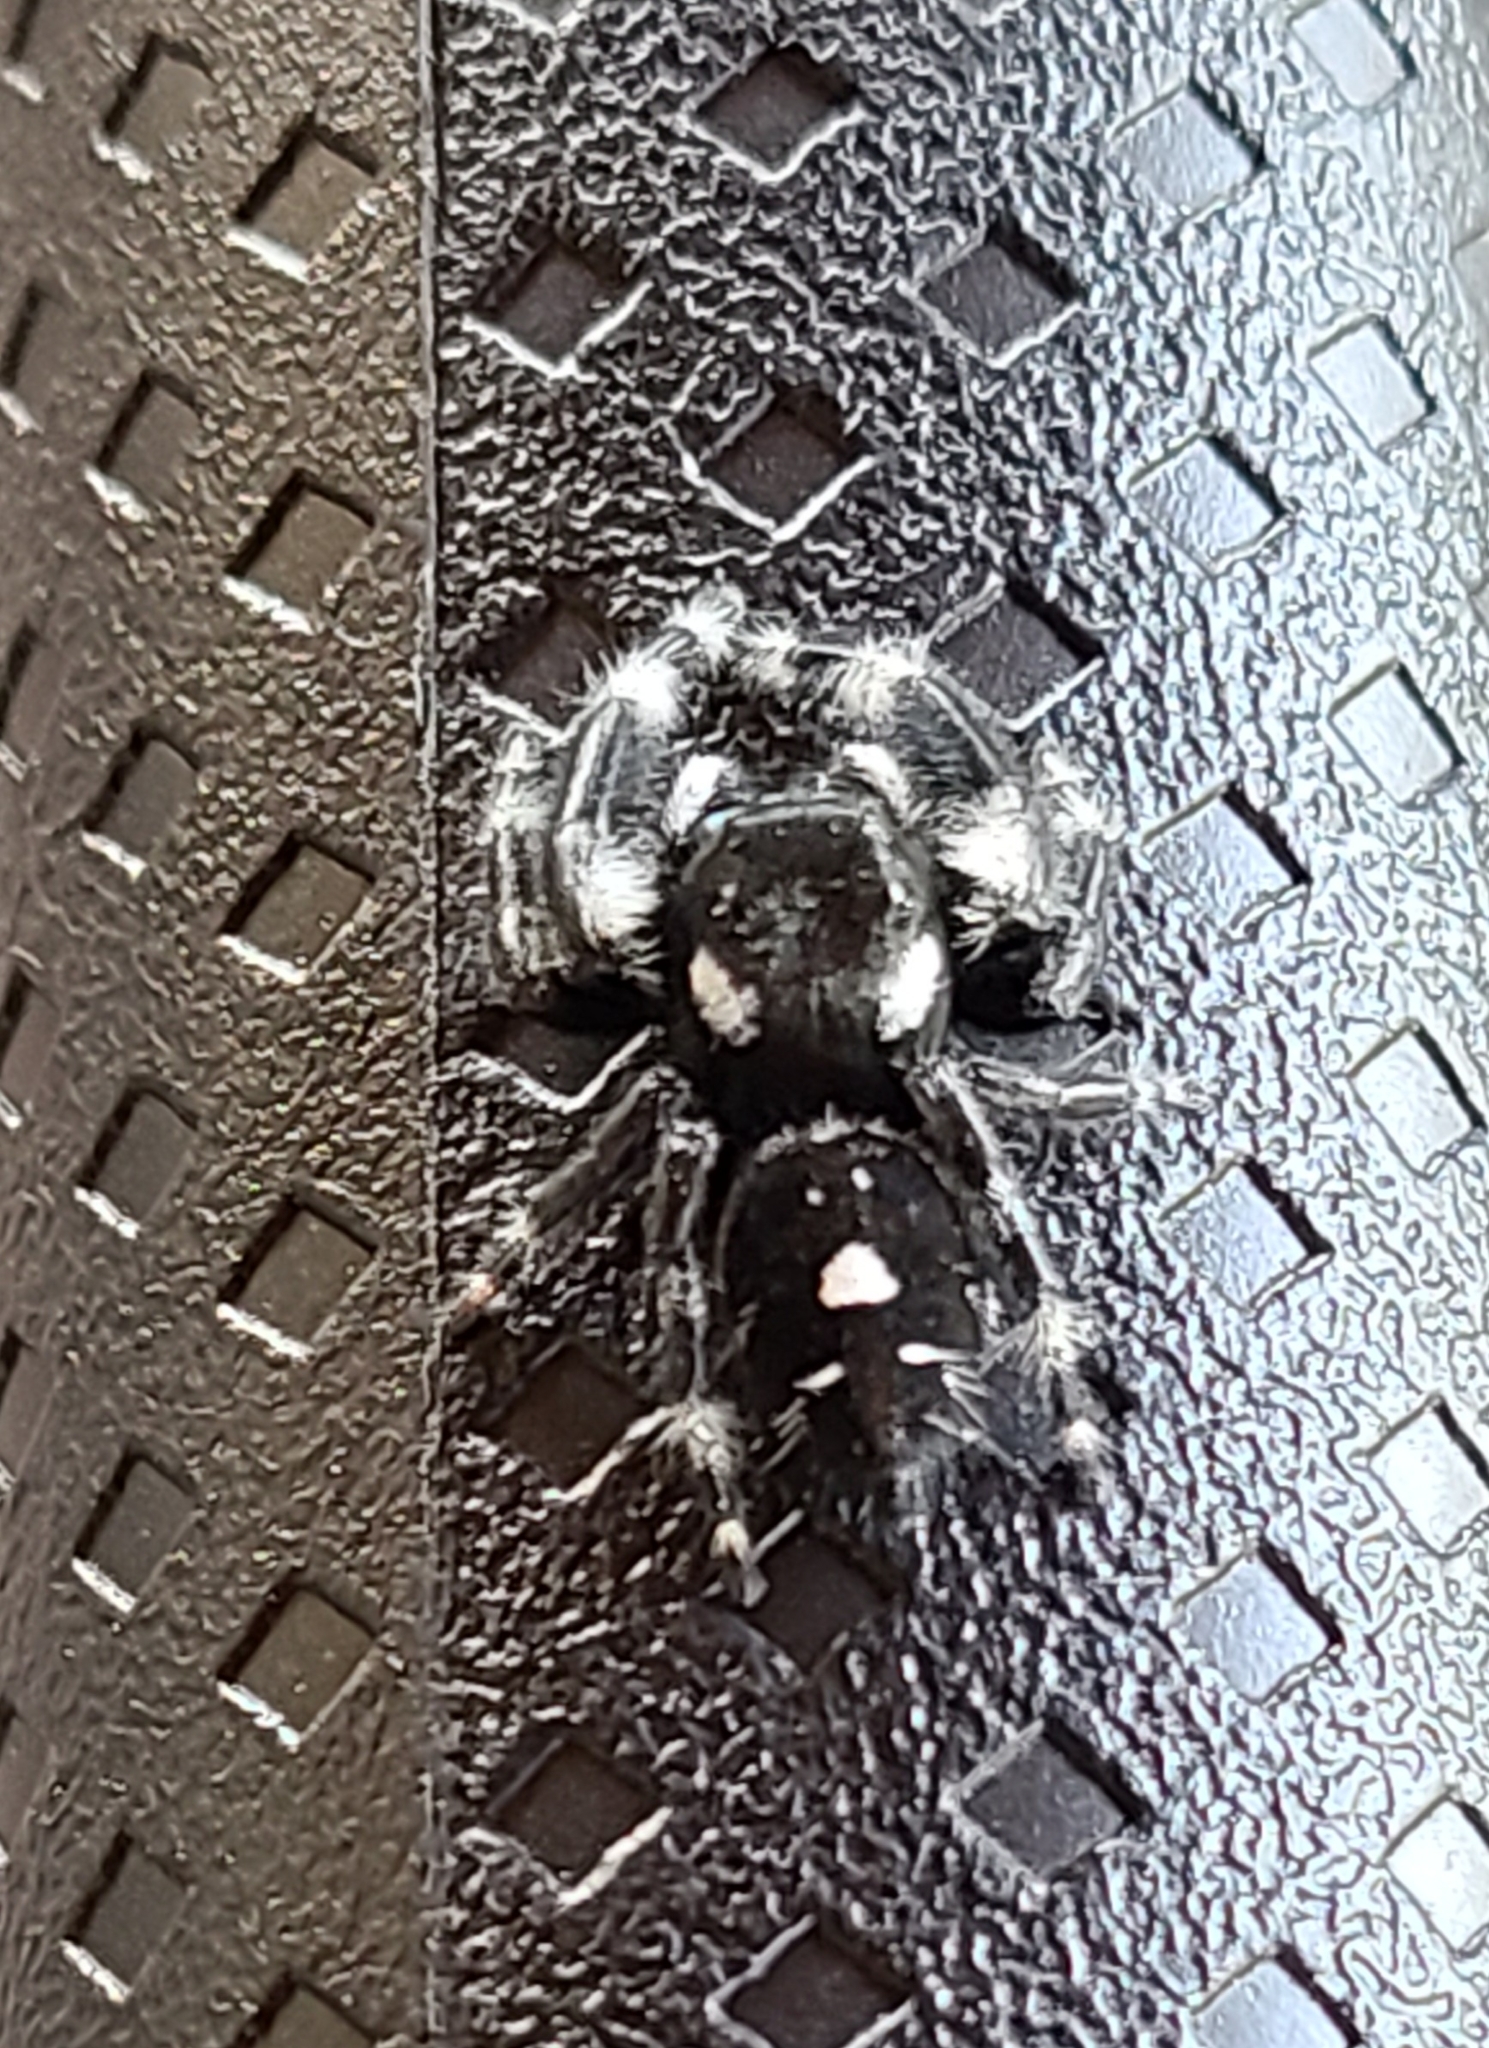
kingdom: Animalia
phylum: Arthropoda
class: Arachnida
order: Araneae
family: Salticidae
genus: Phidippus
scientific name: Phidippus audax
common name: Bold jumper
